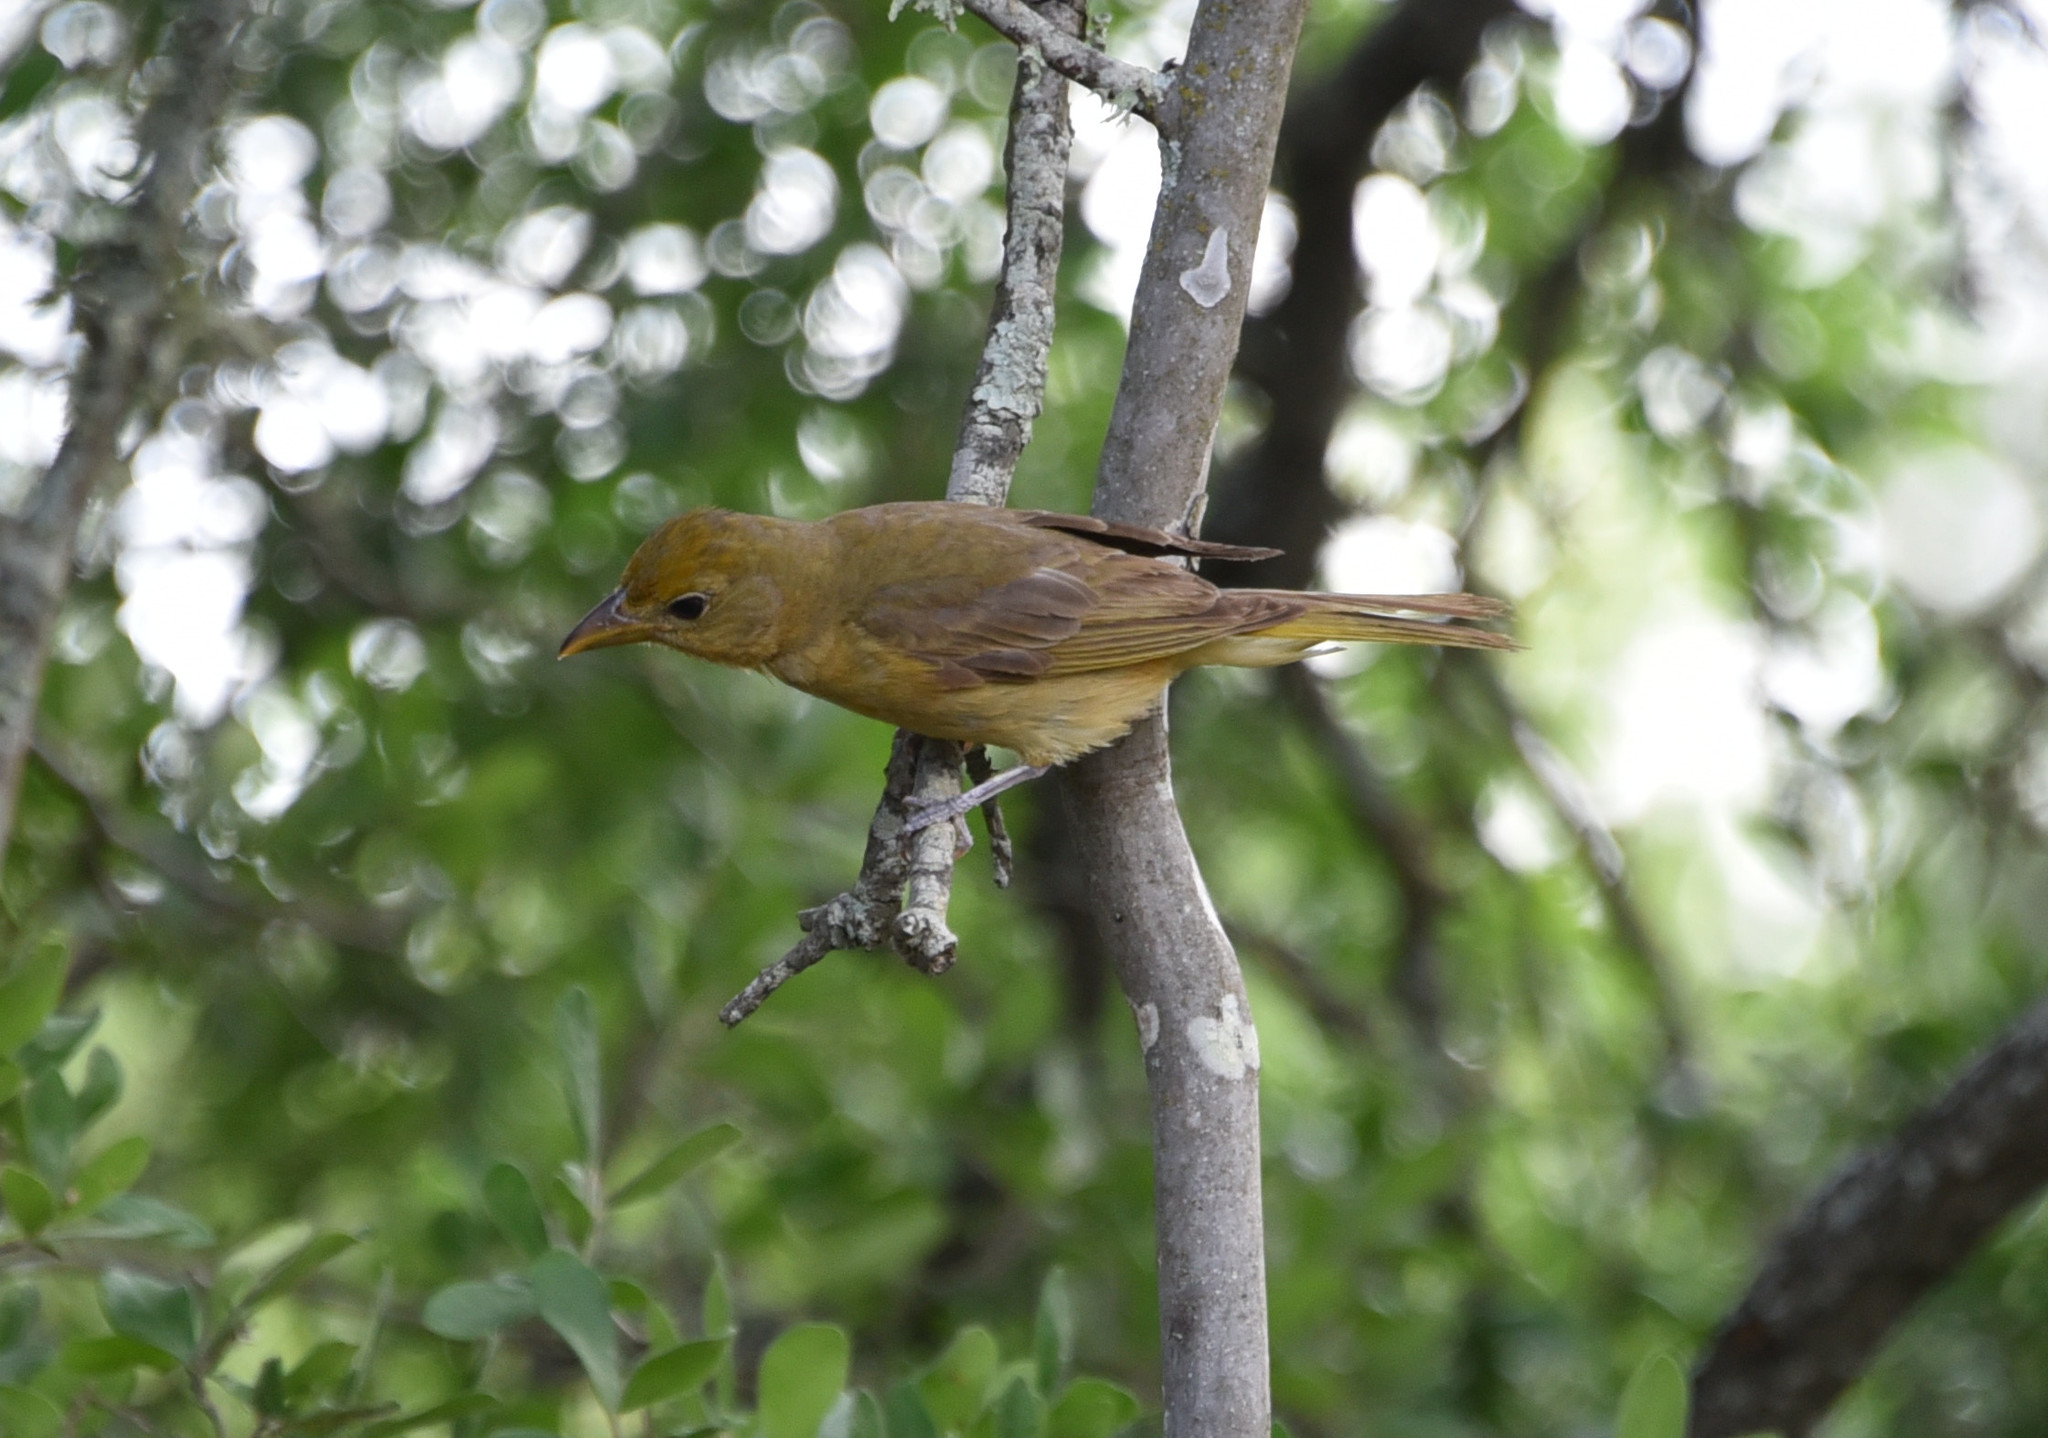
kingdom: Animalia
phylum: Chordata
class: Aves
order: Passeriformes
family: Cardinalidae
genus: Piranga
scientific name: Piranga rubra
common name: Summer tanager
